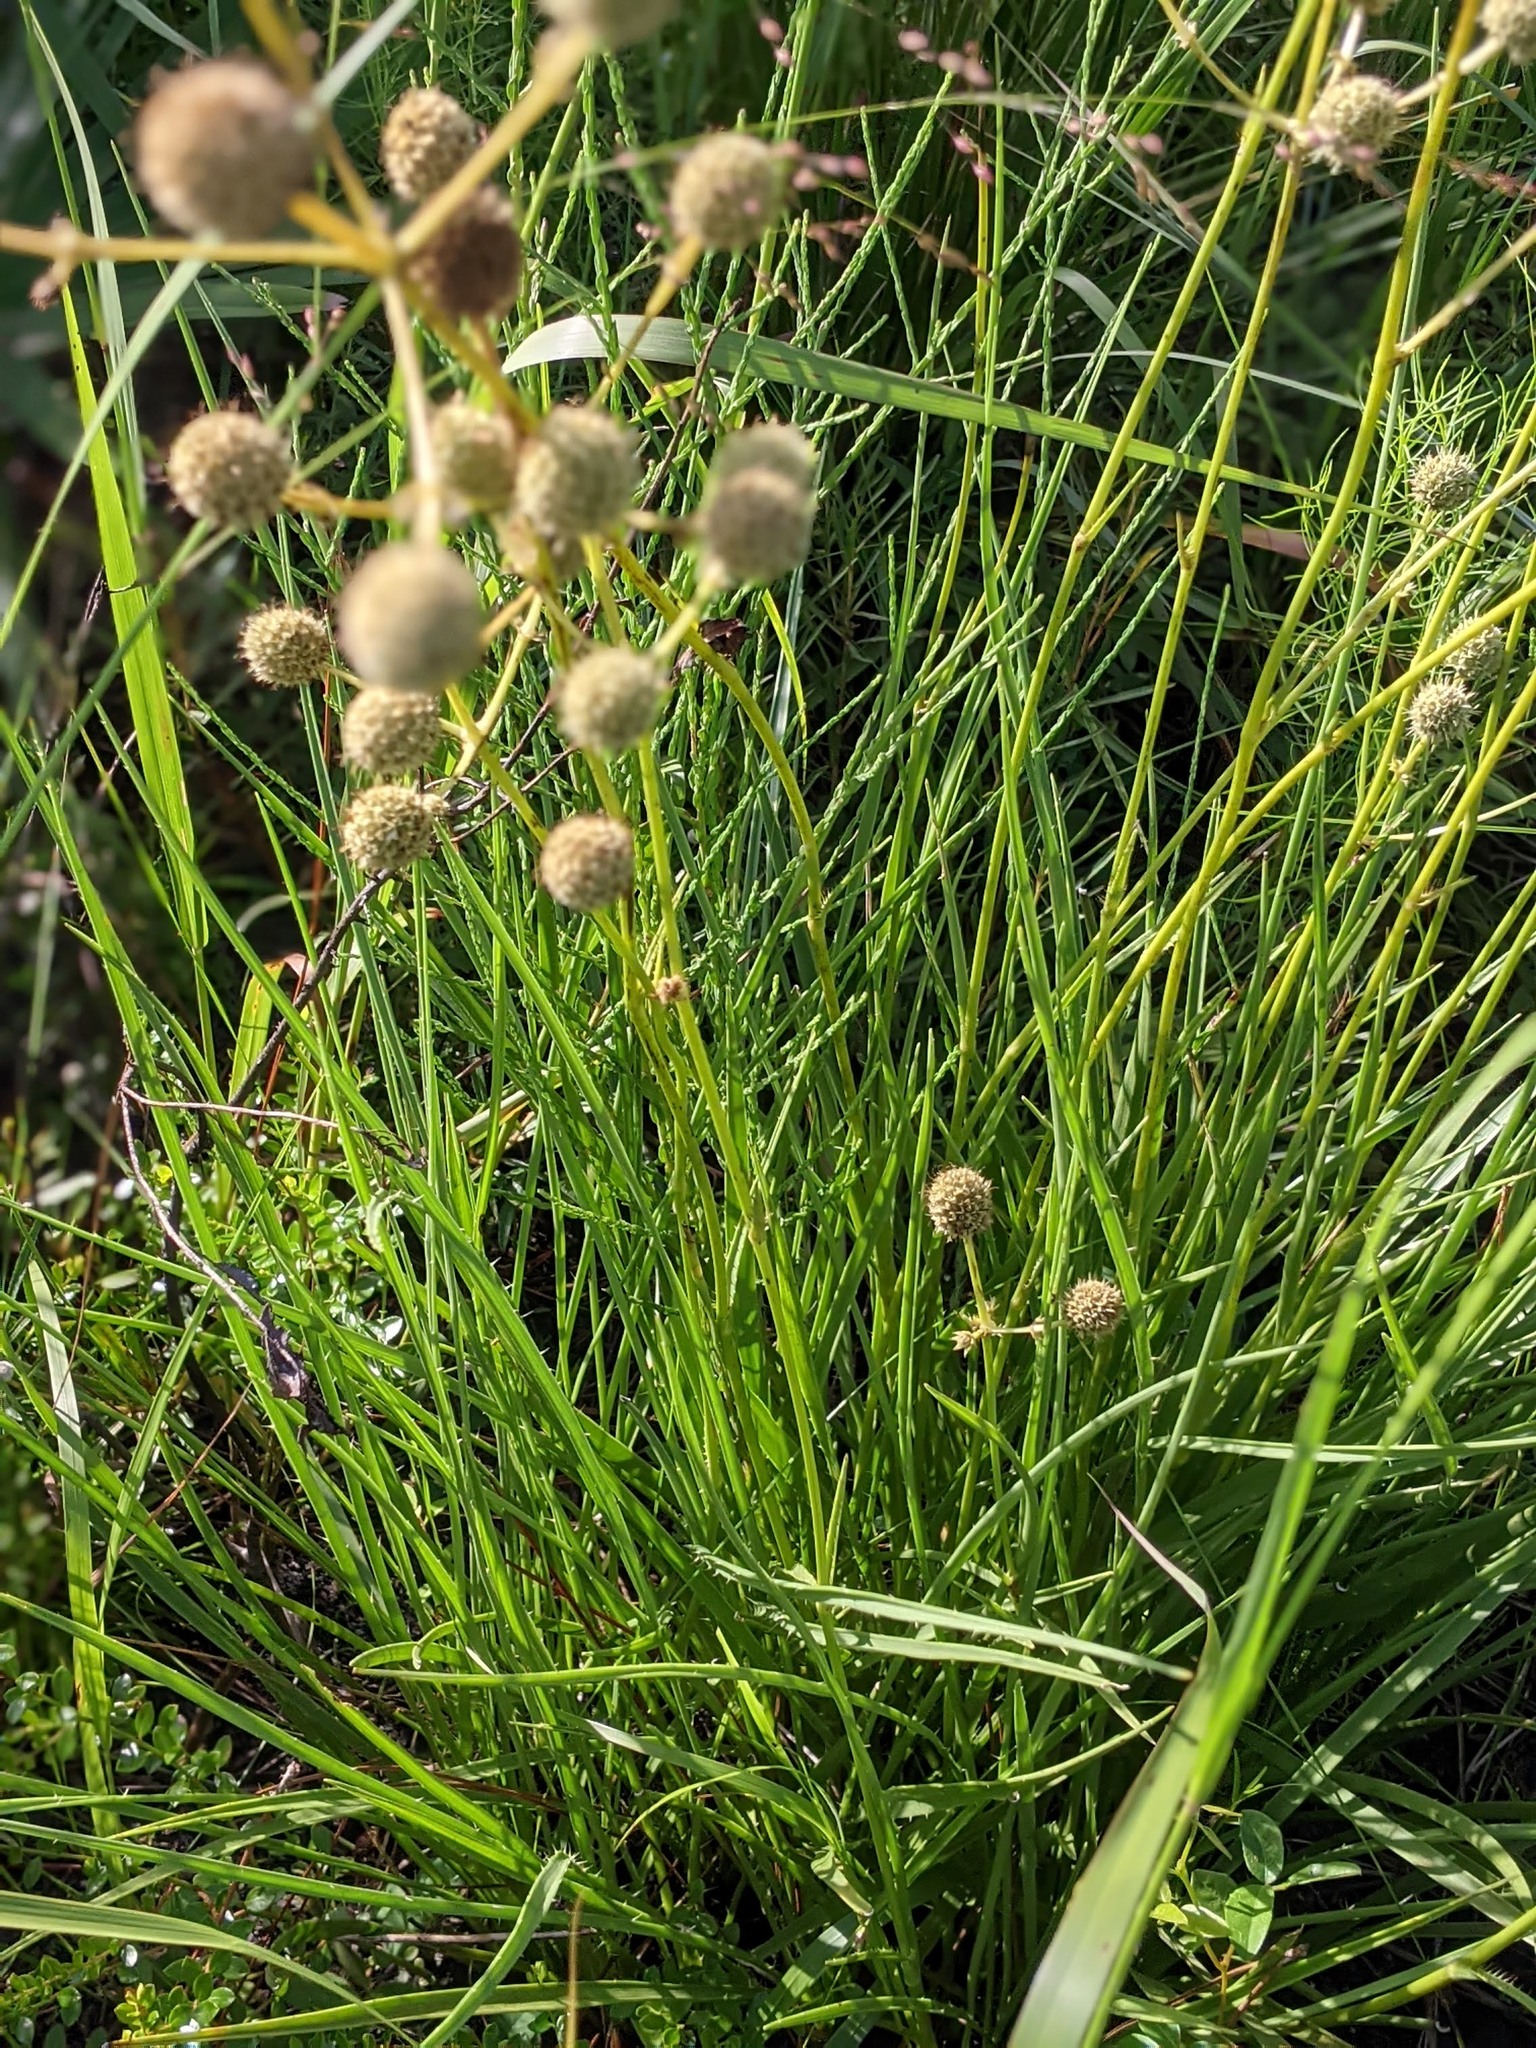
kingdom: Plantae
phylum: Tracheophyta
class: Magnoliopsida
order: Apiales
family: Apiaceae
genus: Eryngium
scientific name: Eryngium yuccifolium
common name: Button eryngo
